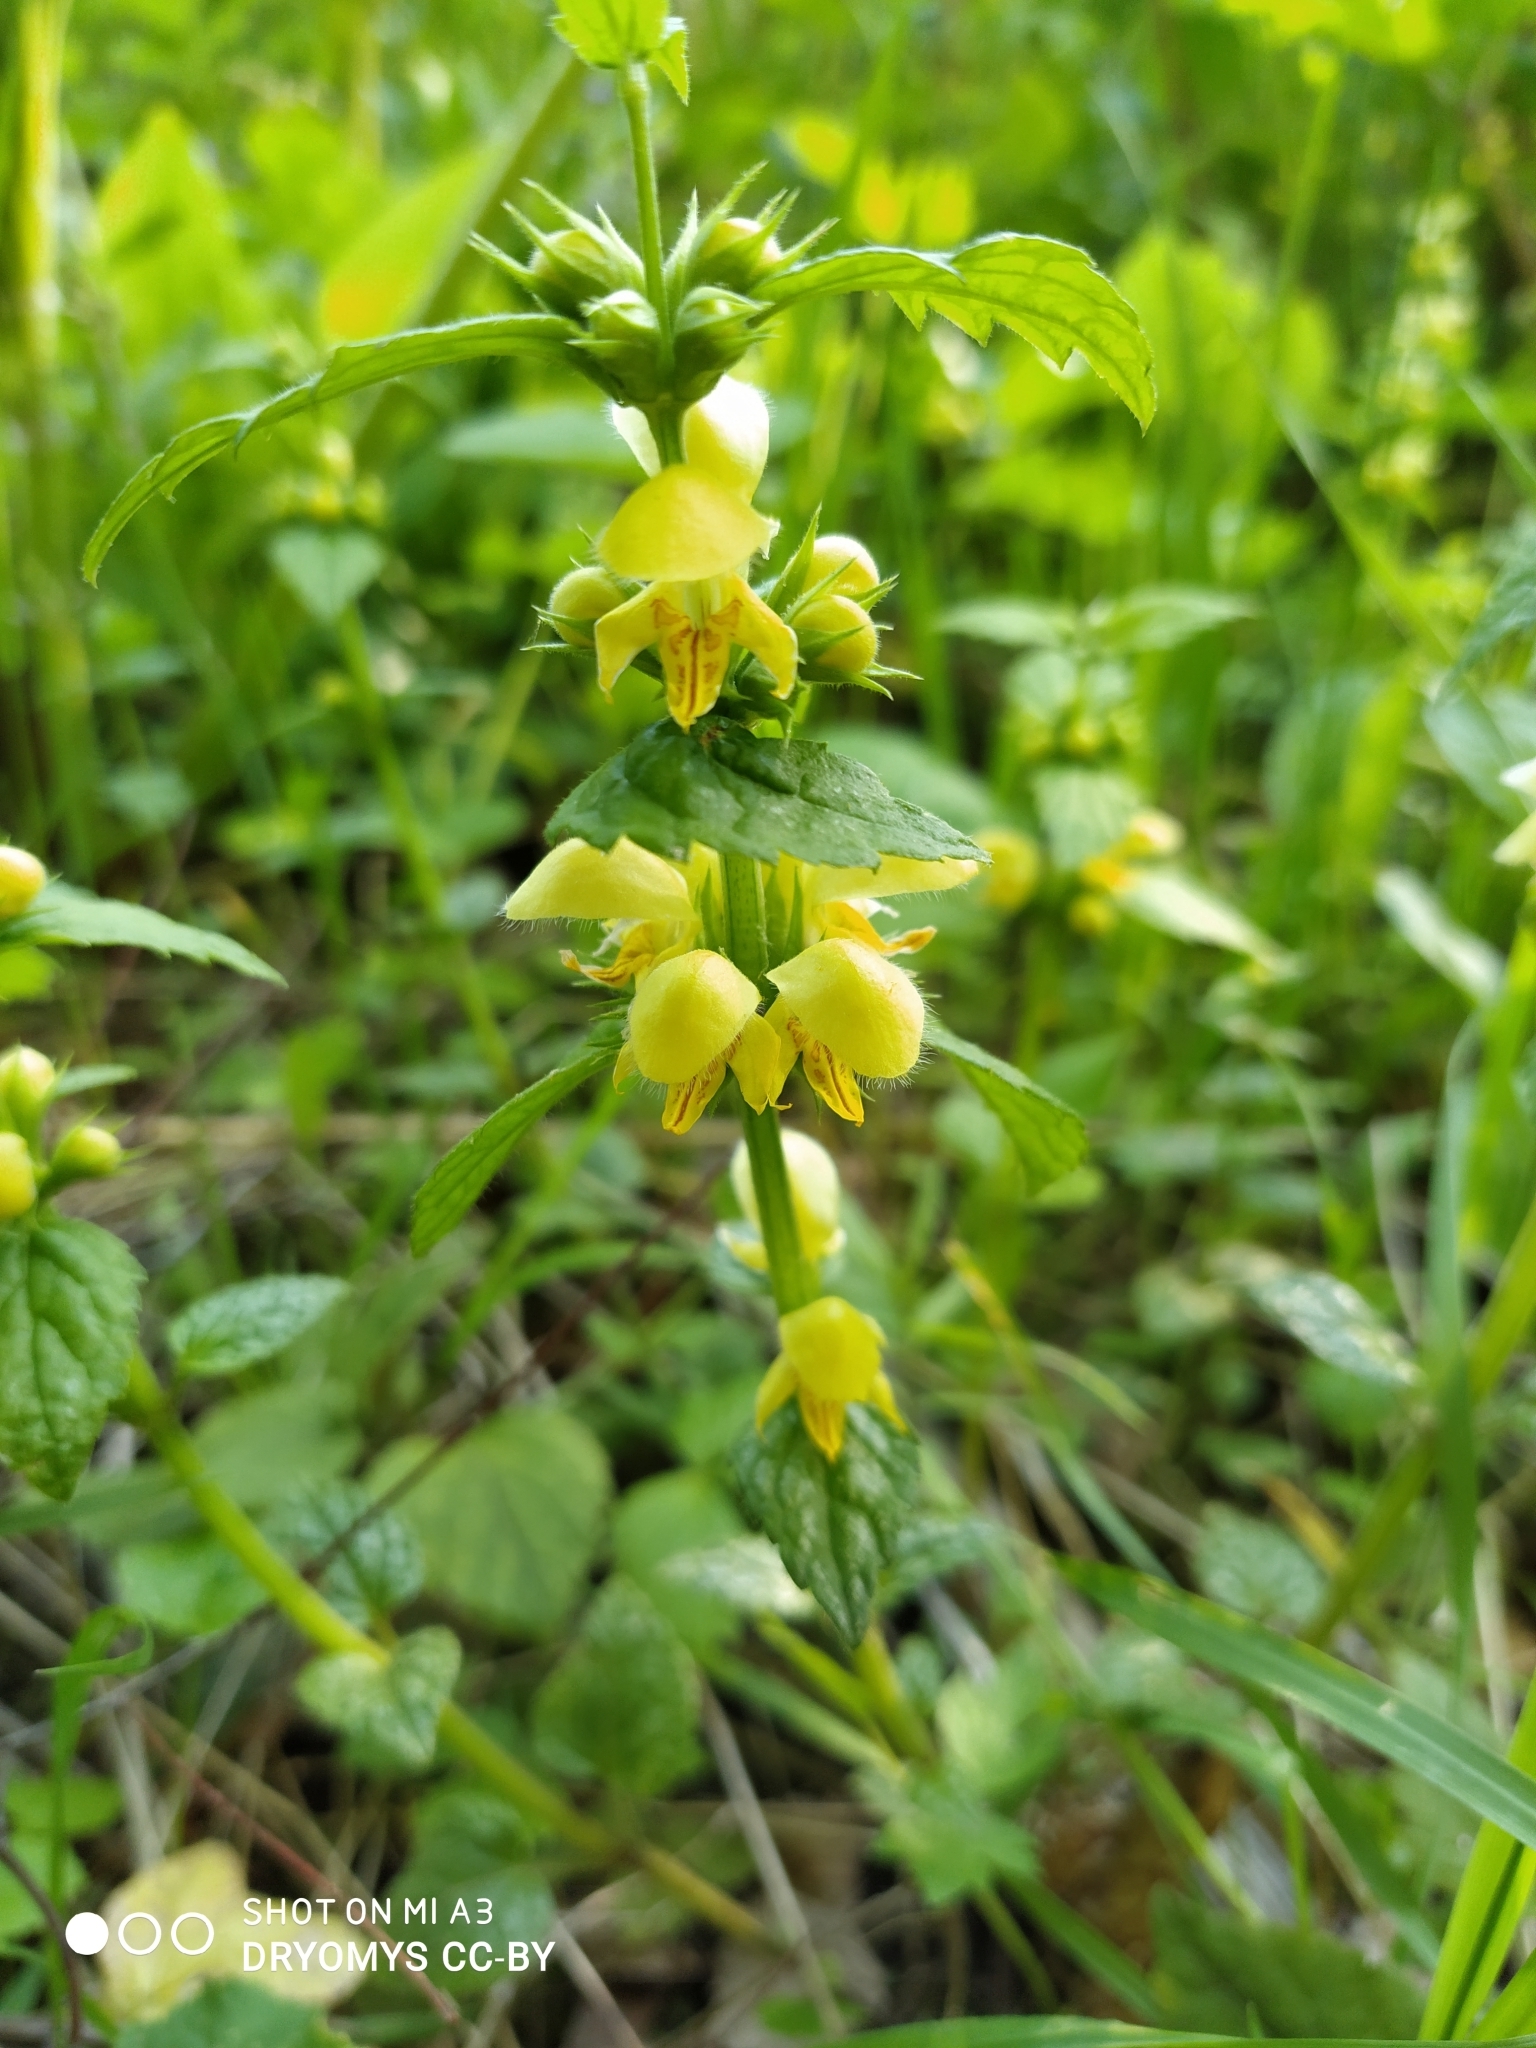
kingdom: Plantae
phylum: Tracheophyta
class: Magnoliopsida
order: Lamiales
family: Lamiaceae
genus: Lamium
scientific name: Lamium galeobdolon
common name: Yellow archangel
